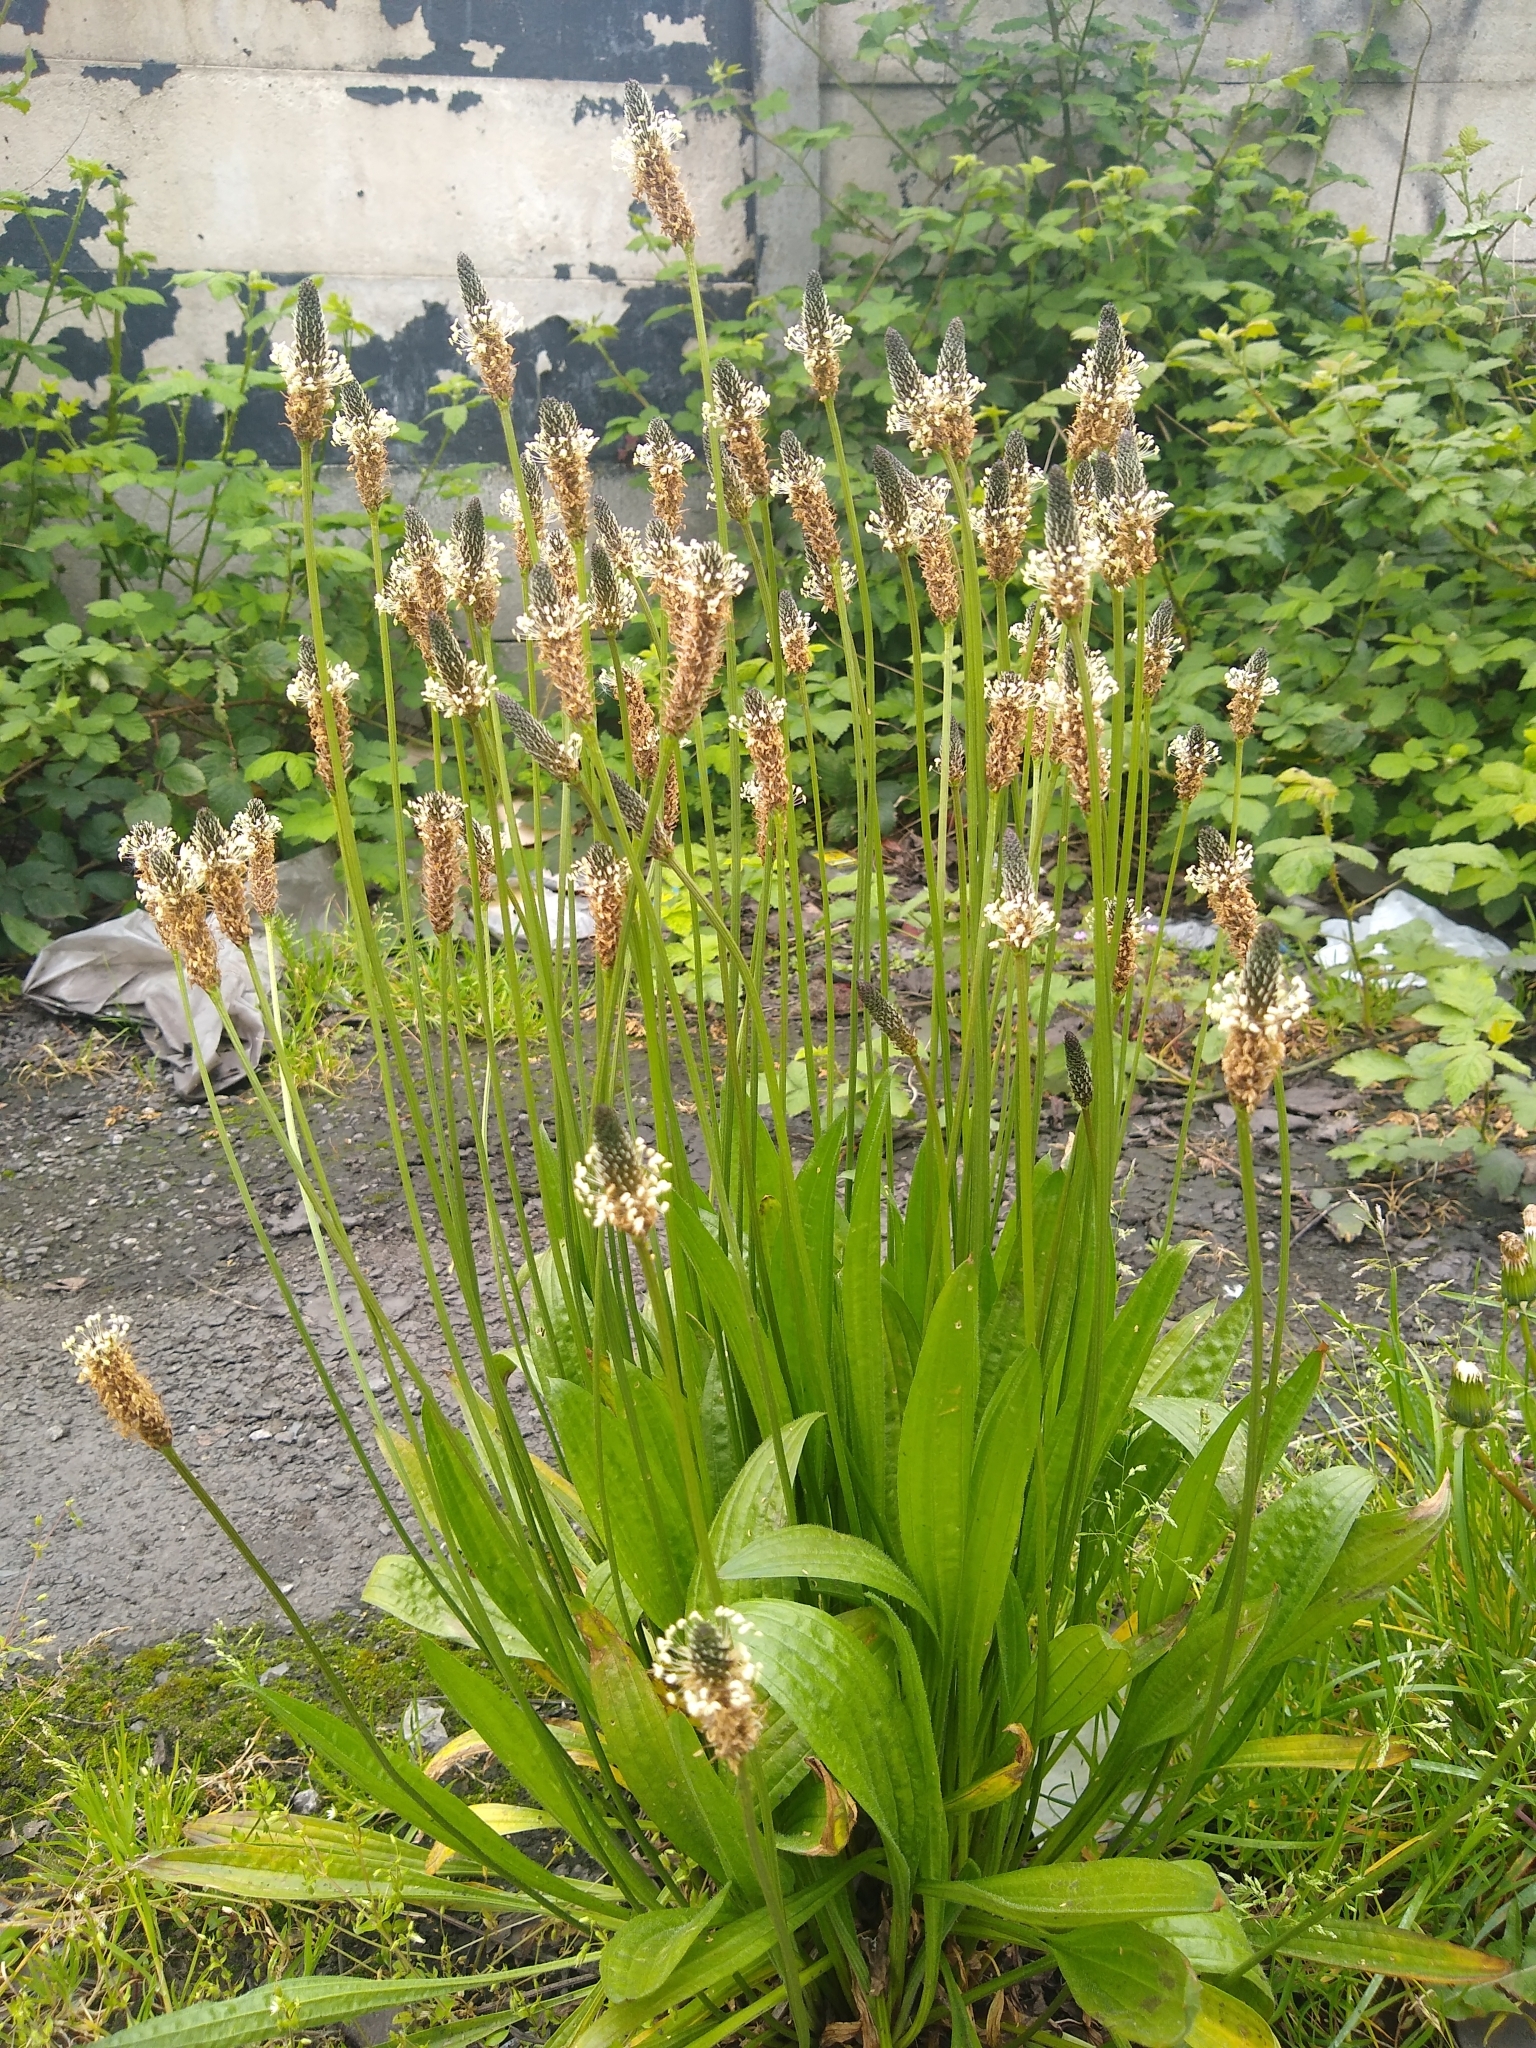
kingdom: Plantae
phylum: Tracheophyta
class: Magnoliopsida
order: Lamiales
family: Plantaginaceae
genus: Plantago
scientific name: Plantago lanceolata
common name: Ribwort plantain
